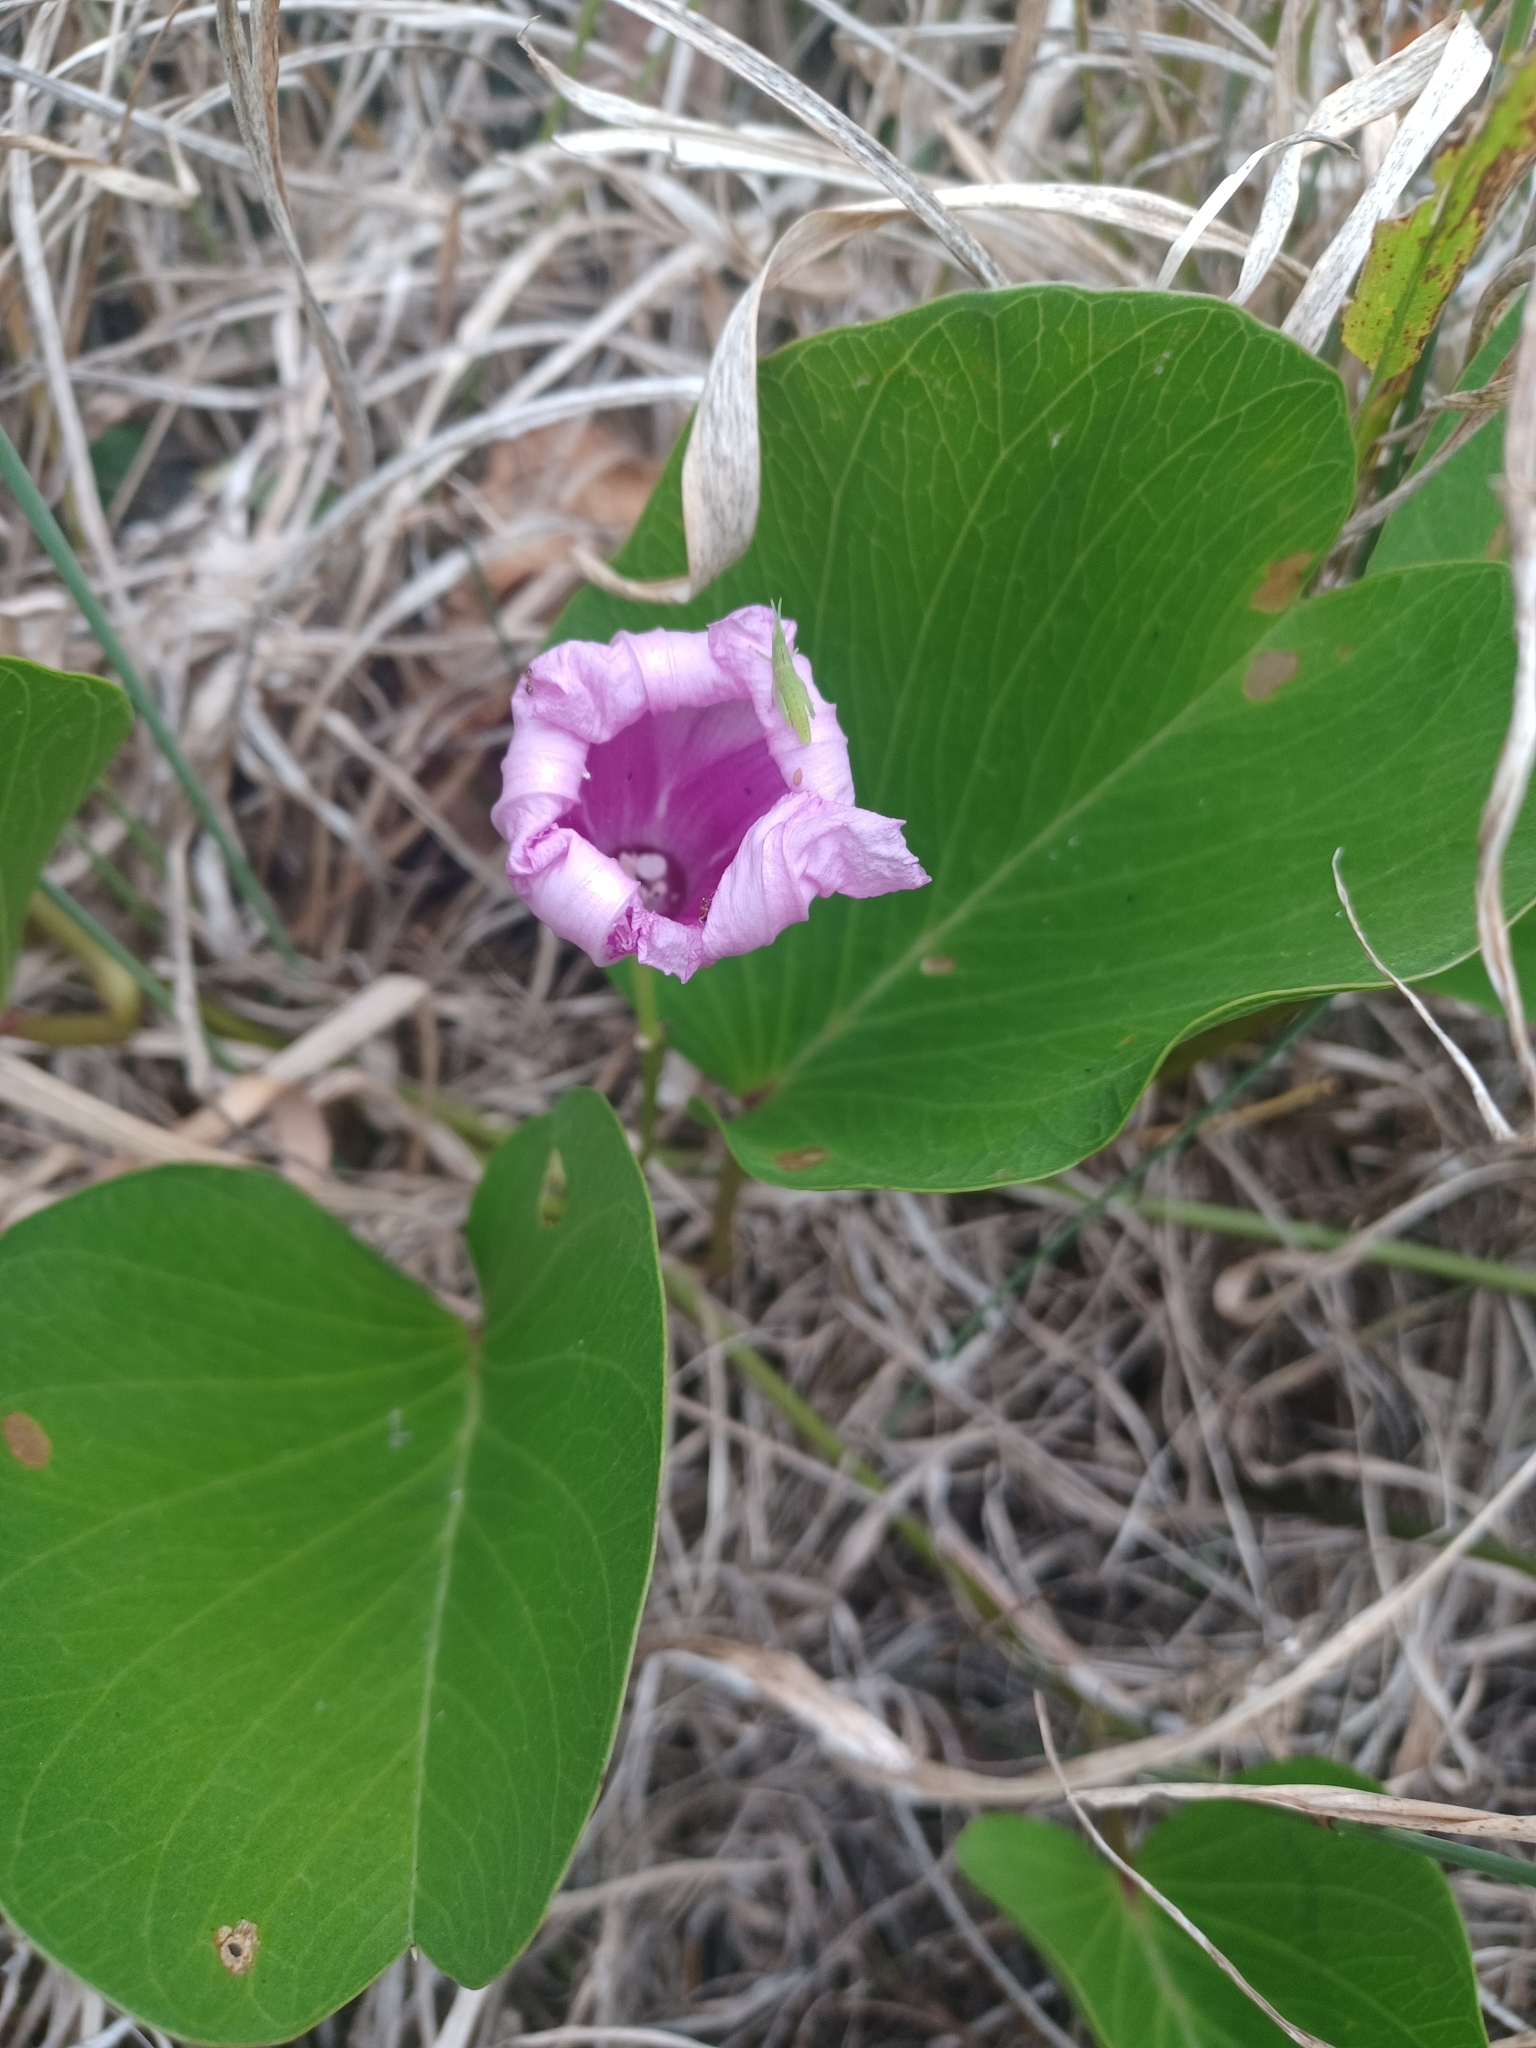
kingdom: Plantae
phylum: Tracheophyta
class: Magnoliopsida
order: Solanales
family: Convolvulaceae
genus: Ipomoea
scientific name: Ipomoea pes-caprae
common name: Beach morning glory
